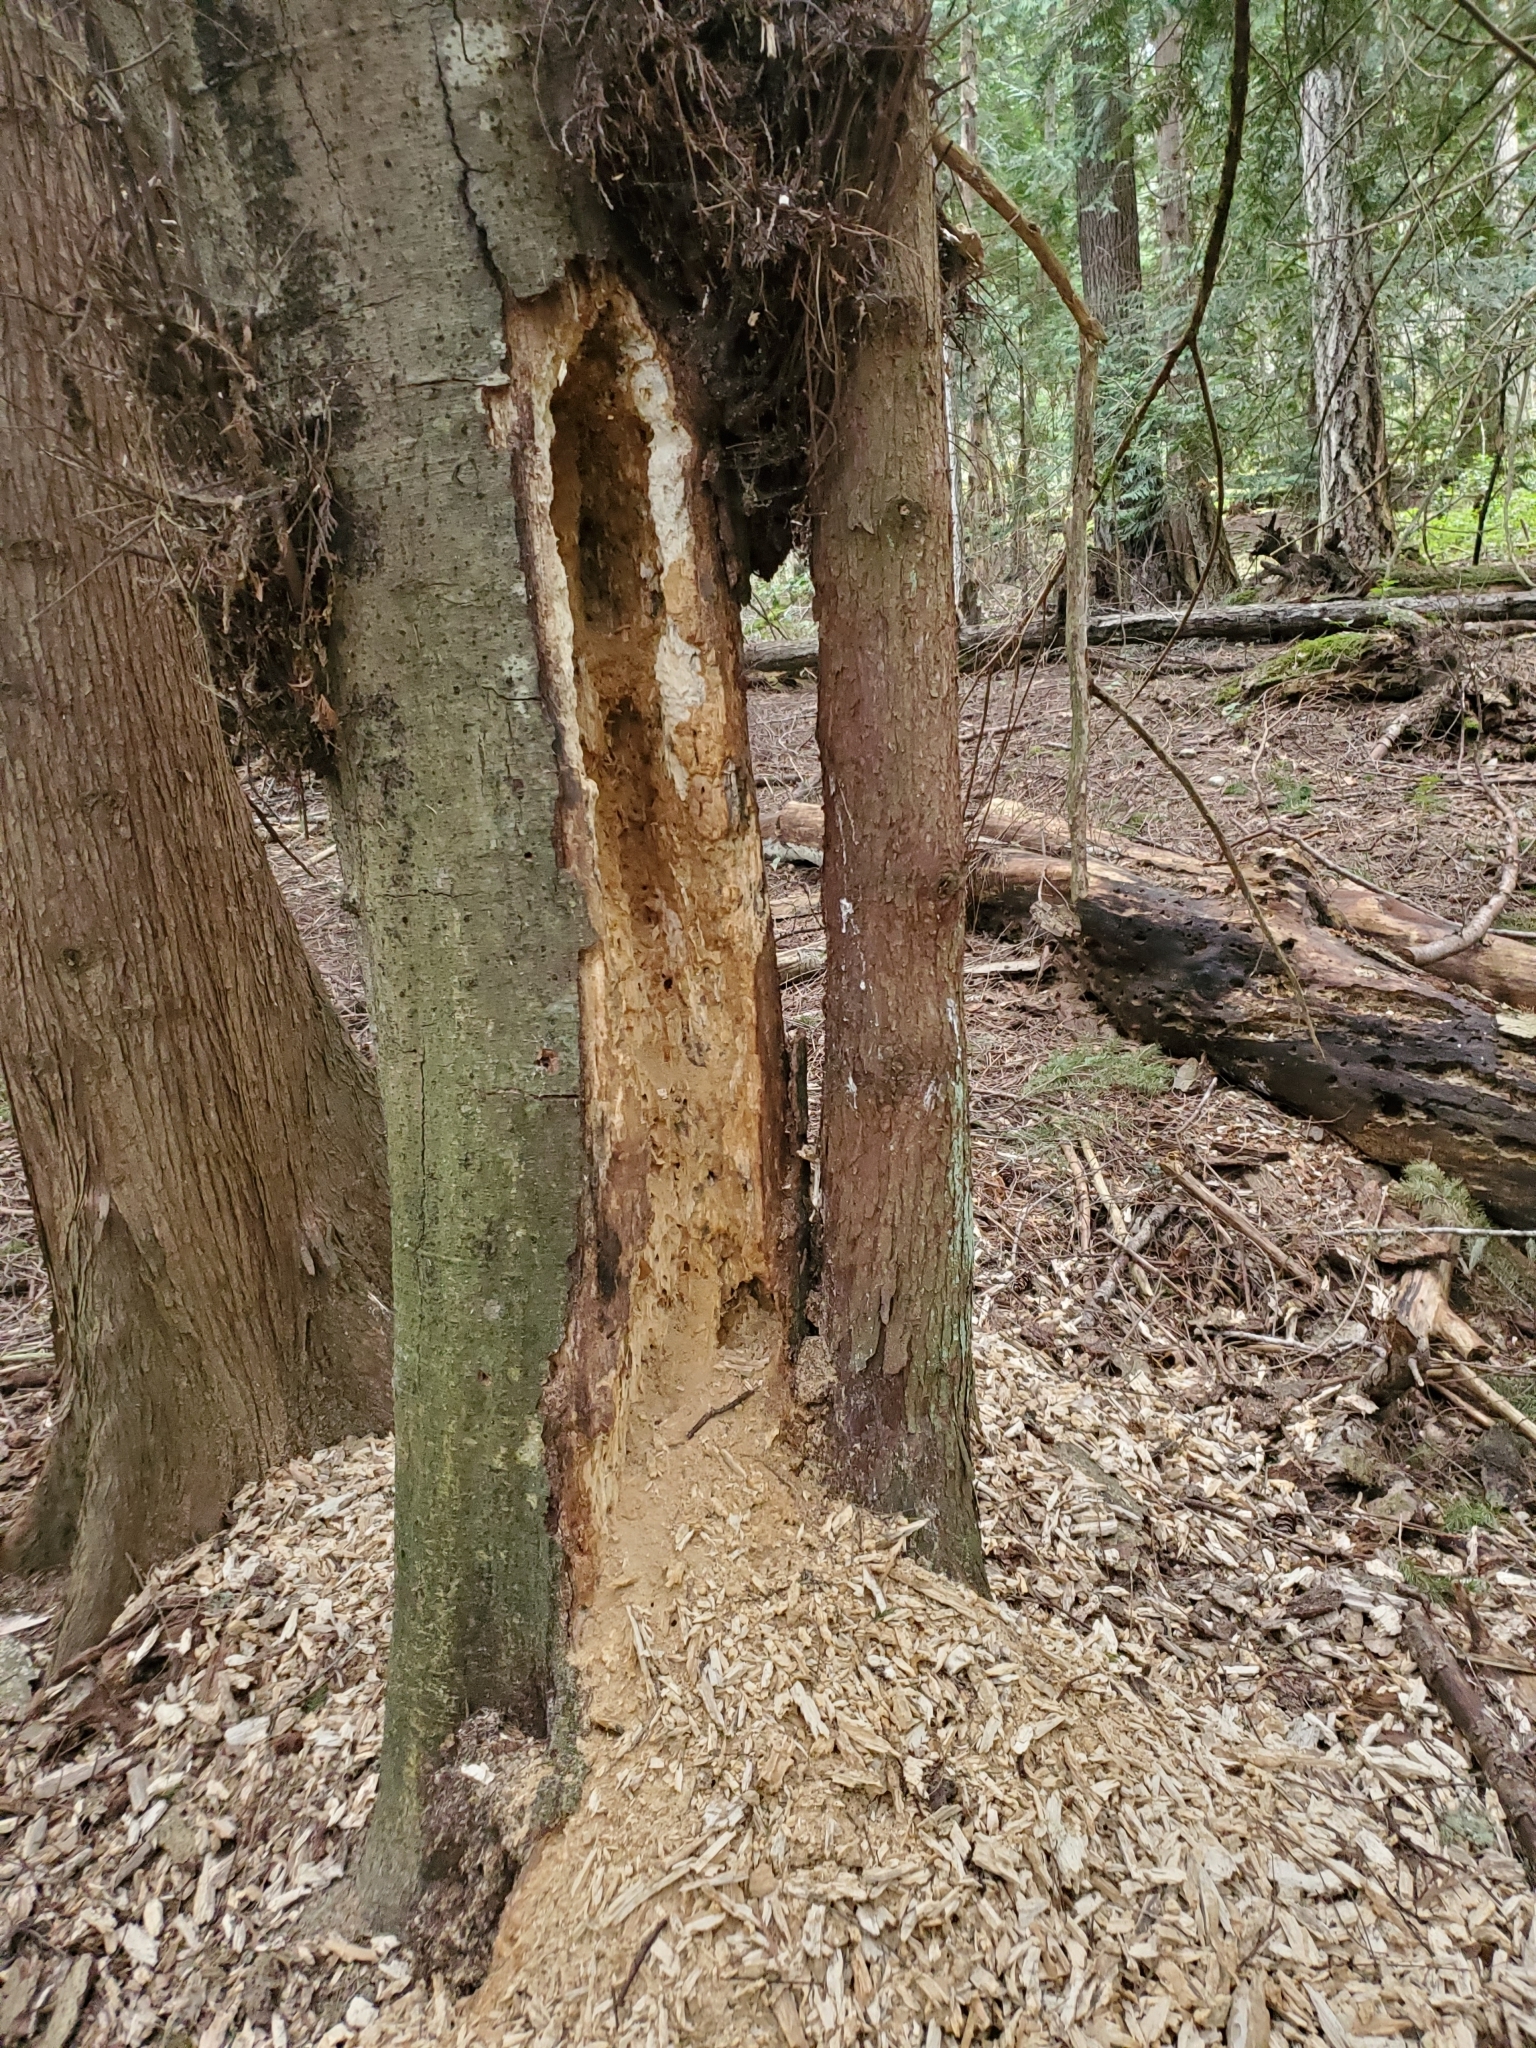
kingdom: Animalia
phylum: Chordata
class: Aves
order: Piciformes
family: Picidae
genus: Dryocopus
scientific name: Dryocopus pileatus
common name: Pileated woodpecker
